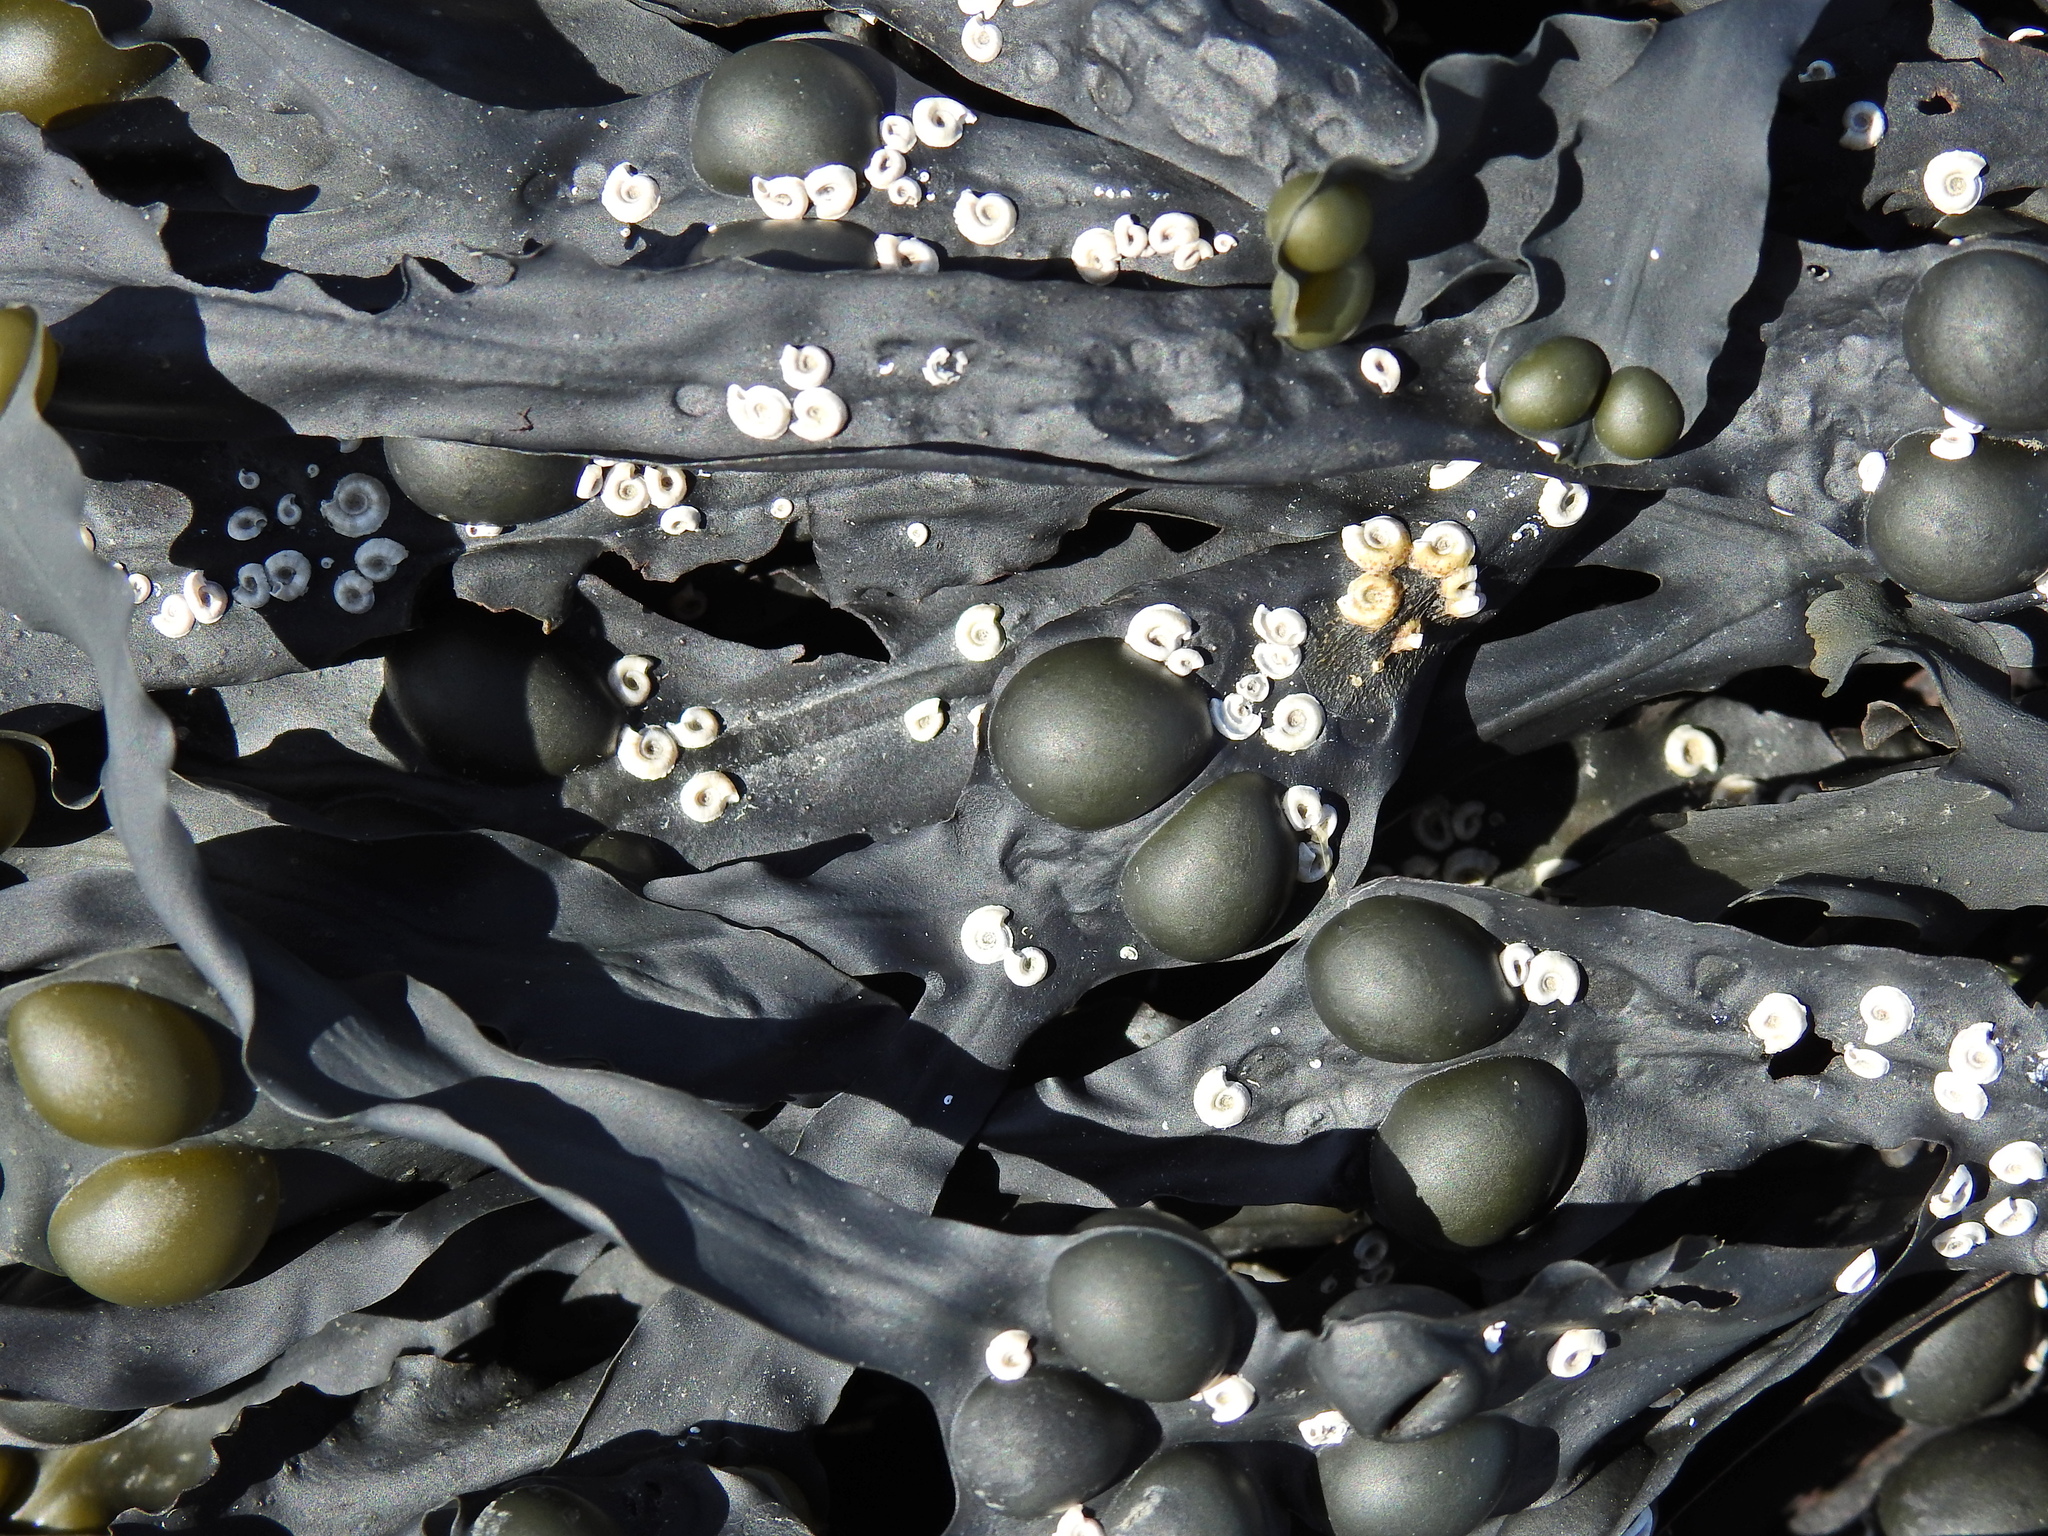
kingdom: Animalia
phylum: Annelida
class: Polychaeta
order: Sabellida
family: Serpulidae
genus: Spirorbis
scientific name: Spirorbis spirorbis
